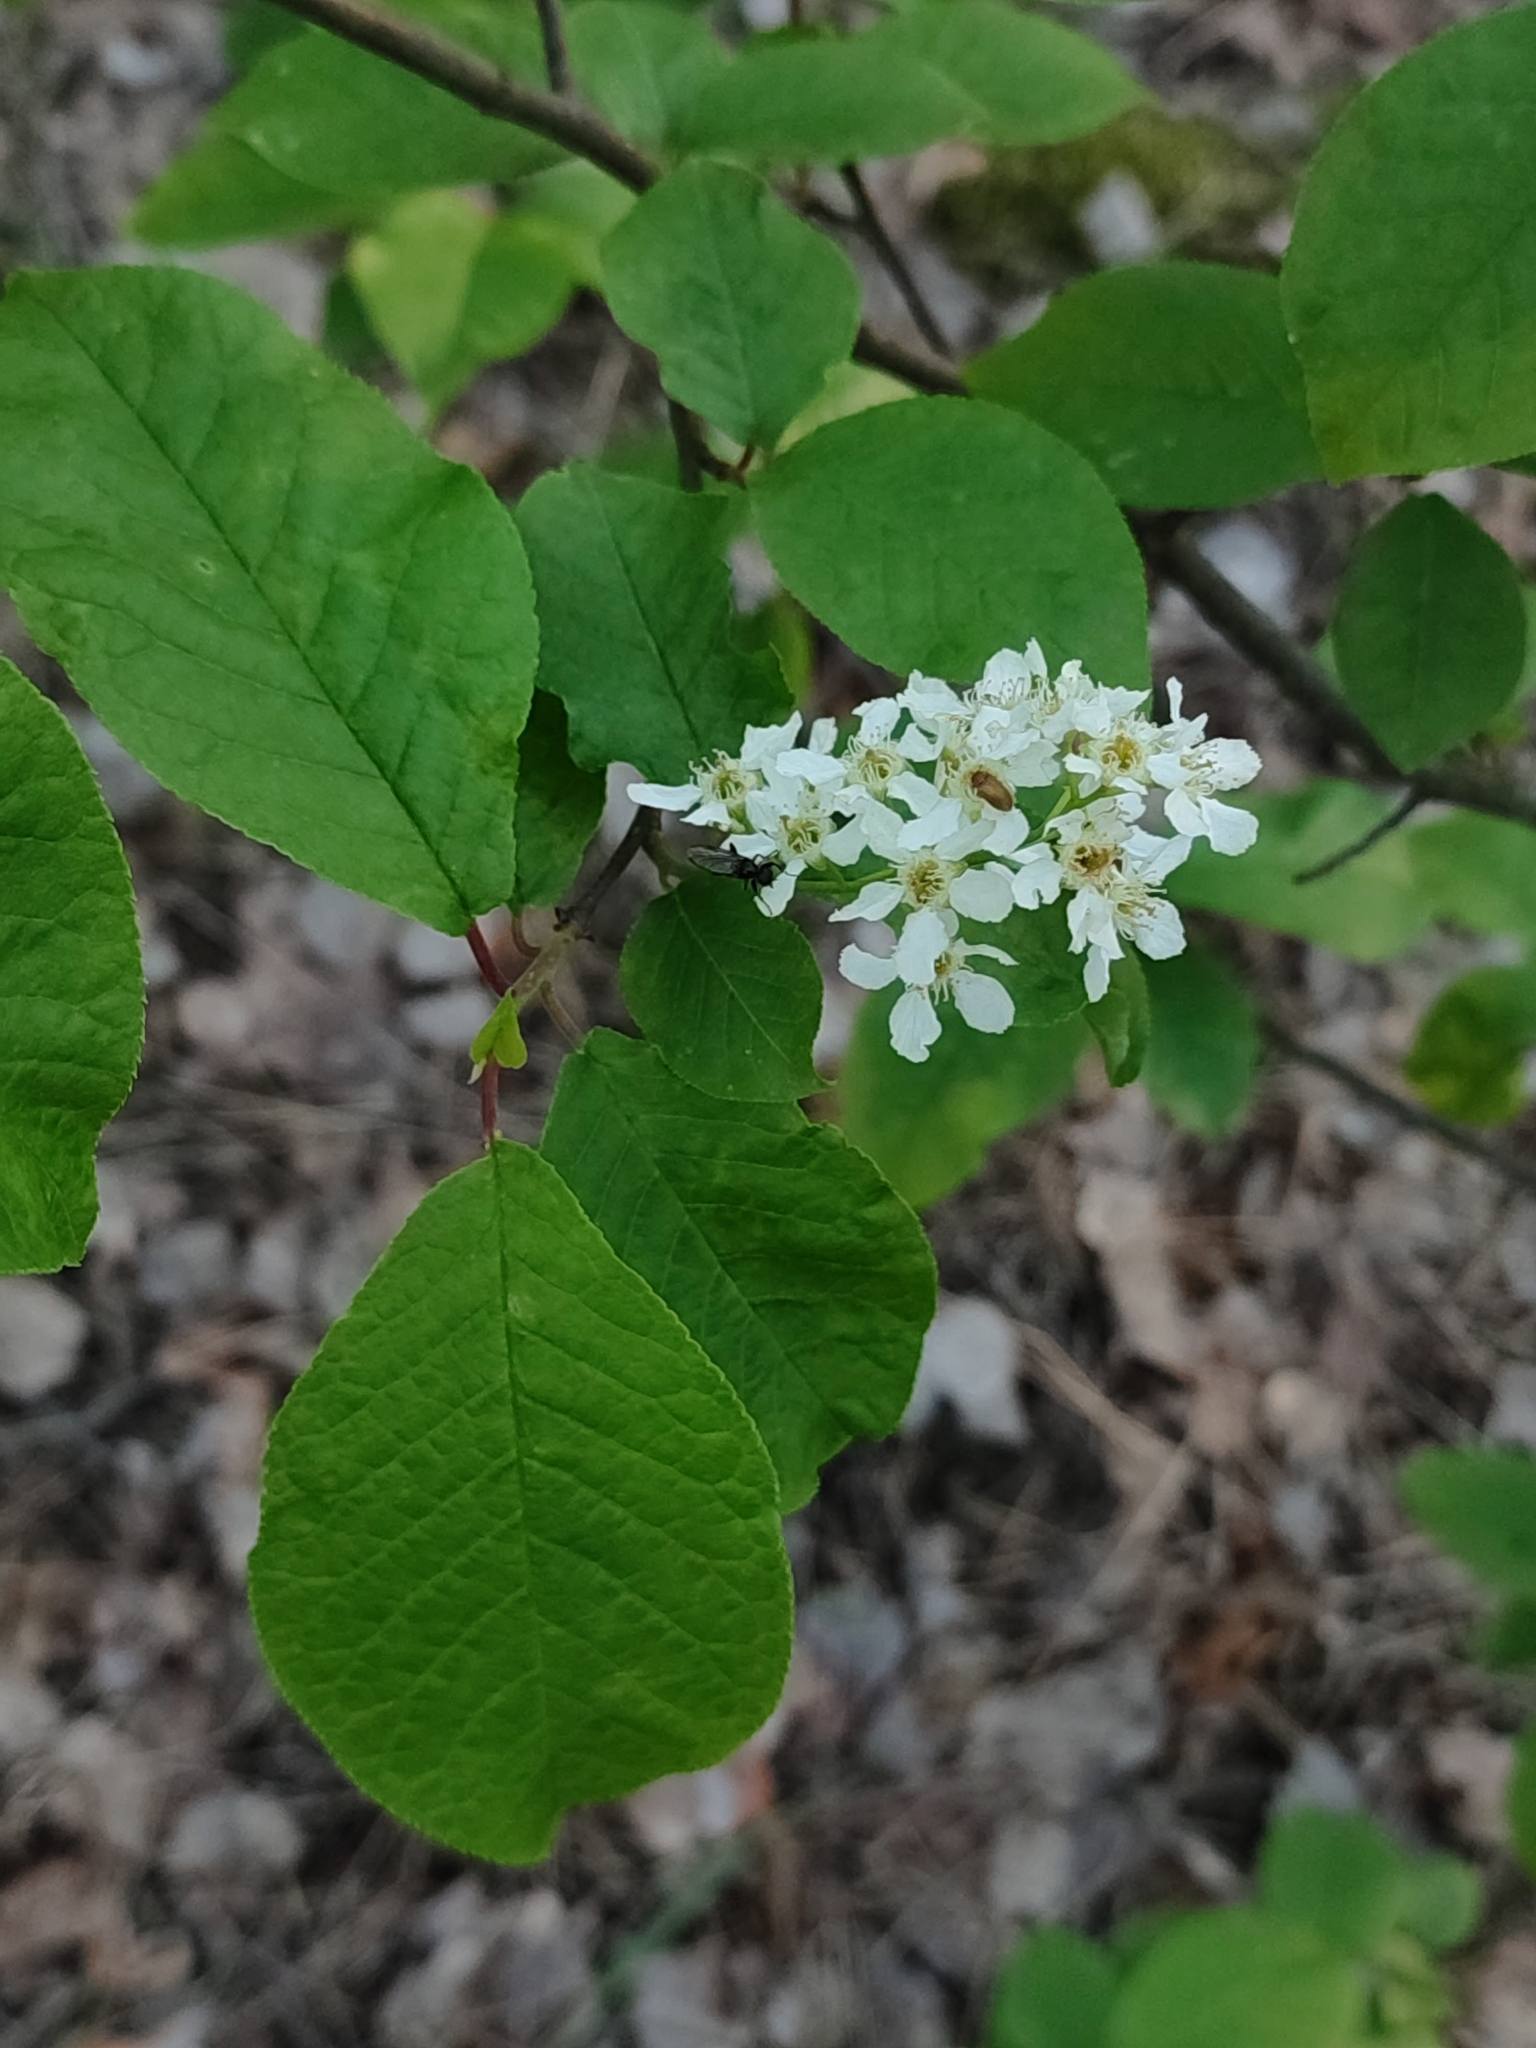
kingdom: Plantae
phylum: Tracheophyta
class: Magnoliopsida
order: Rosales
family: Rosaceae
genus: Prunus
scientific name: Prunus padus
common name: Bird cherry
